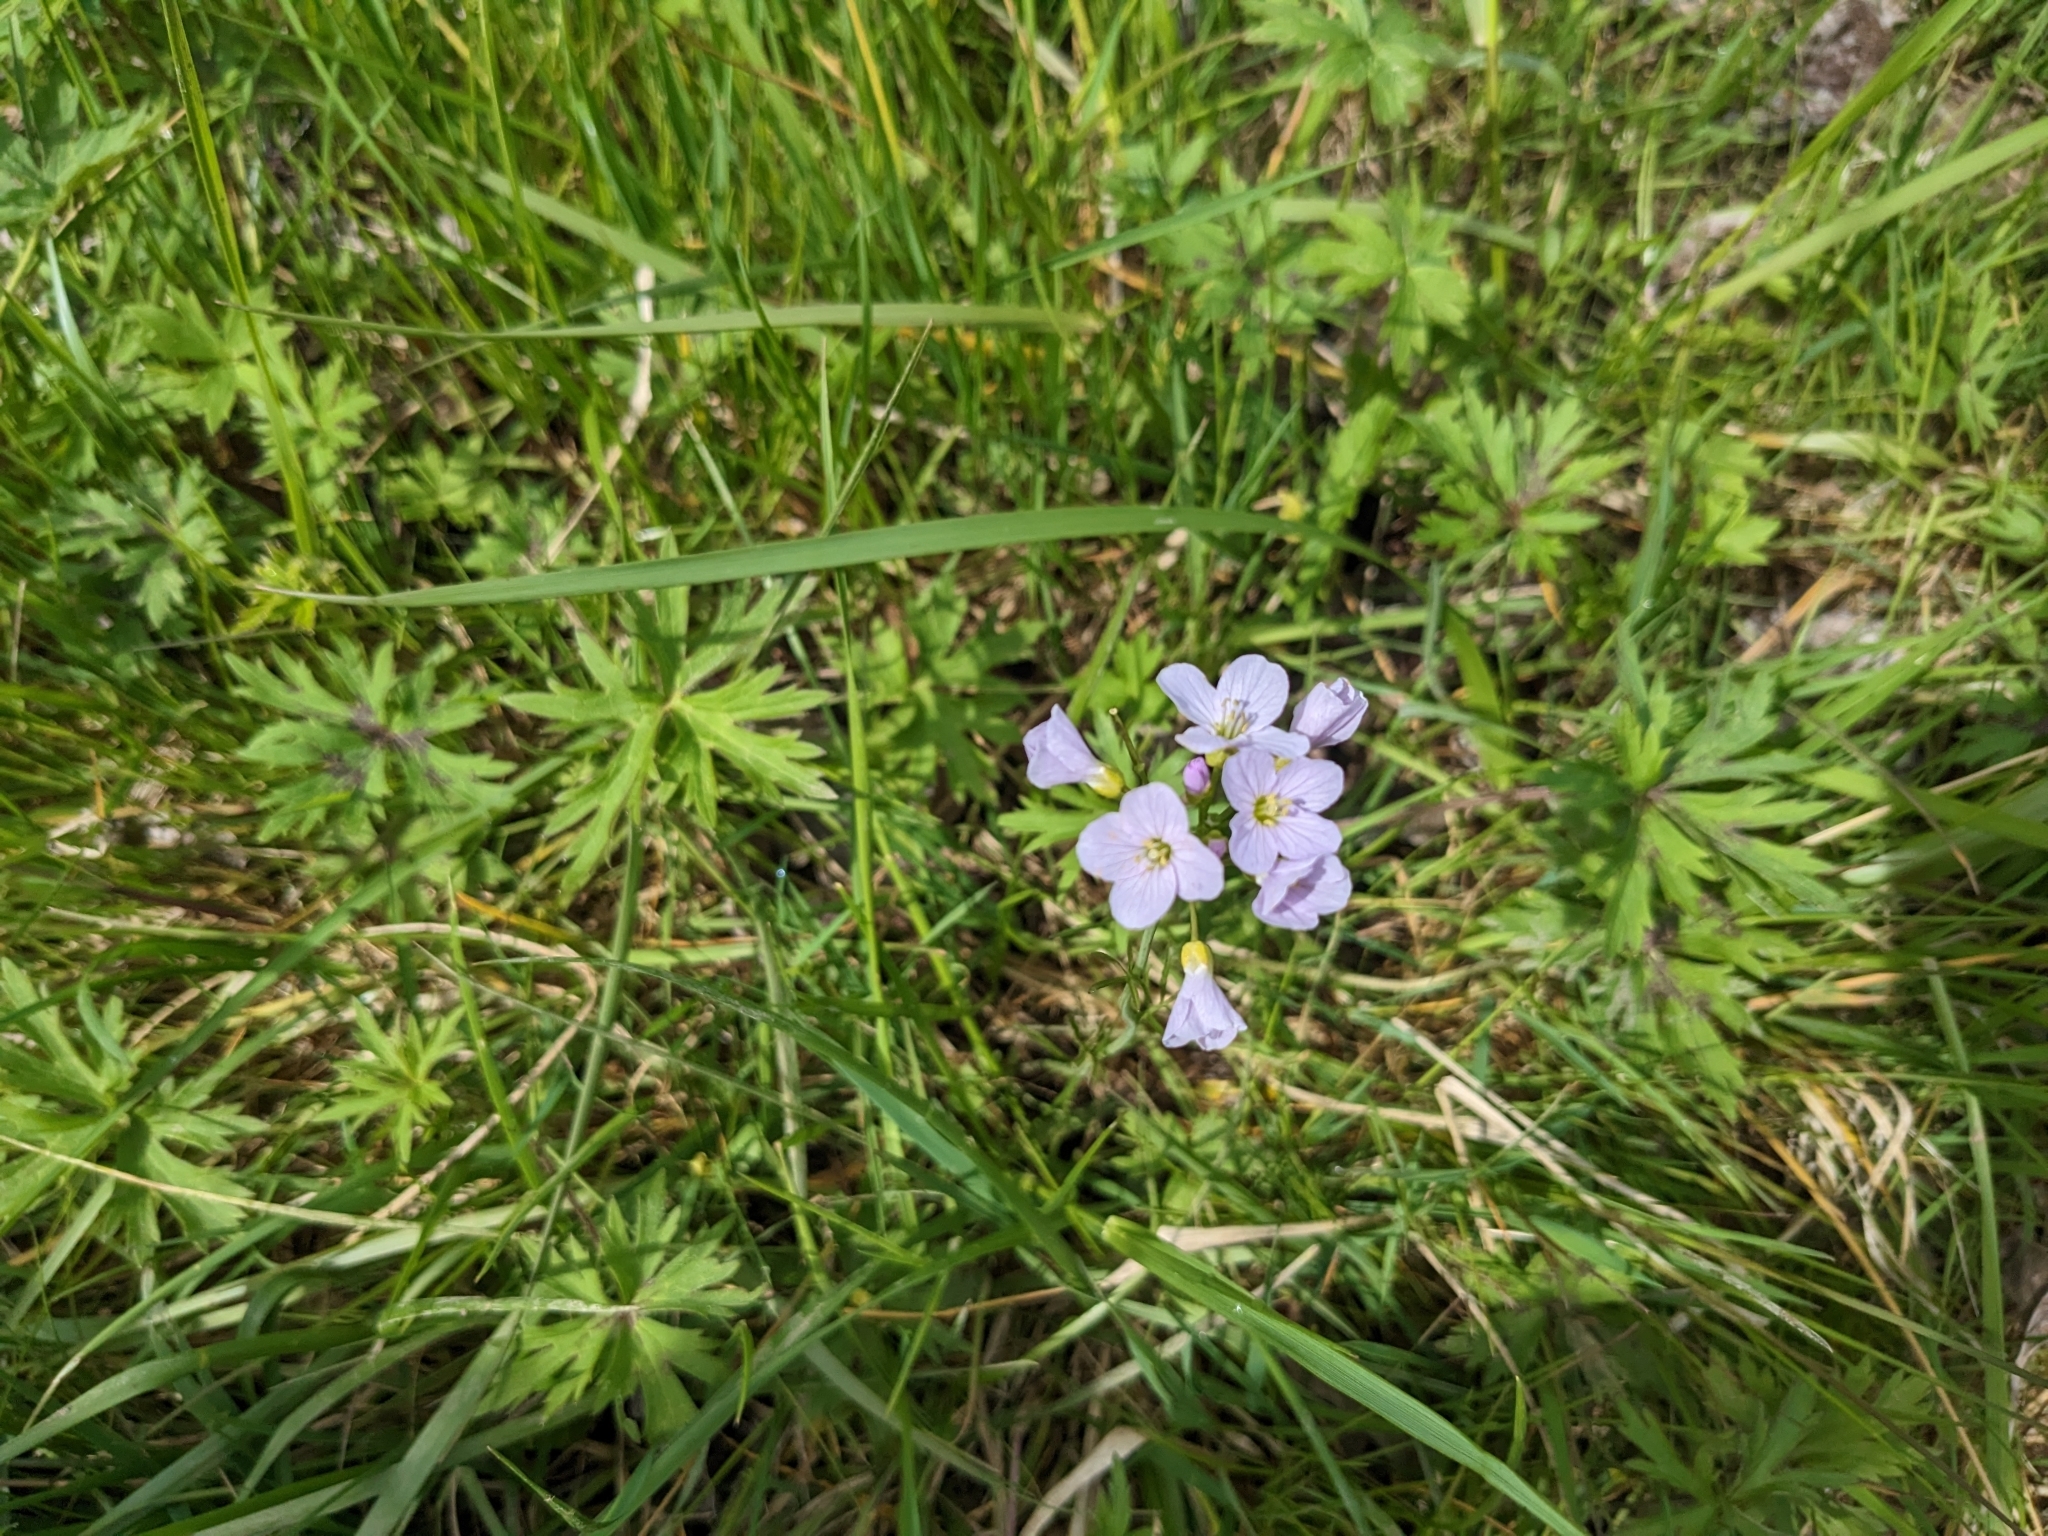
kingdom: Plantae
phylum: Tracheophyta
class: Magnoliopsida
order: Brassicales
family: Brassicaceae
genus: Cardamine
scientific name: Cardamine pratensis
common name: Cuckoo flower
